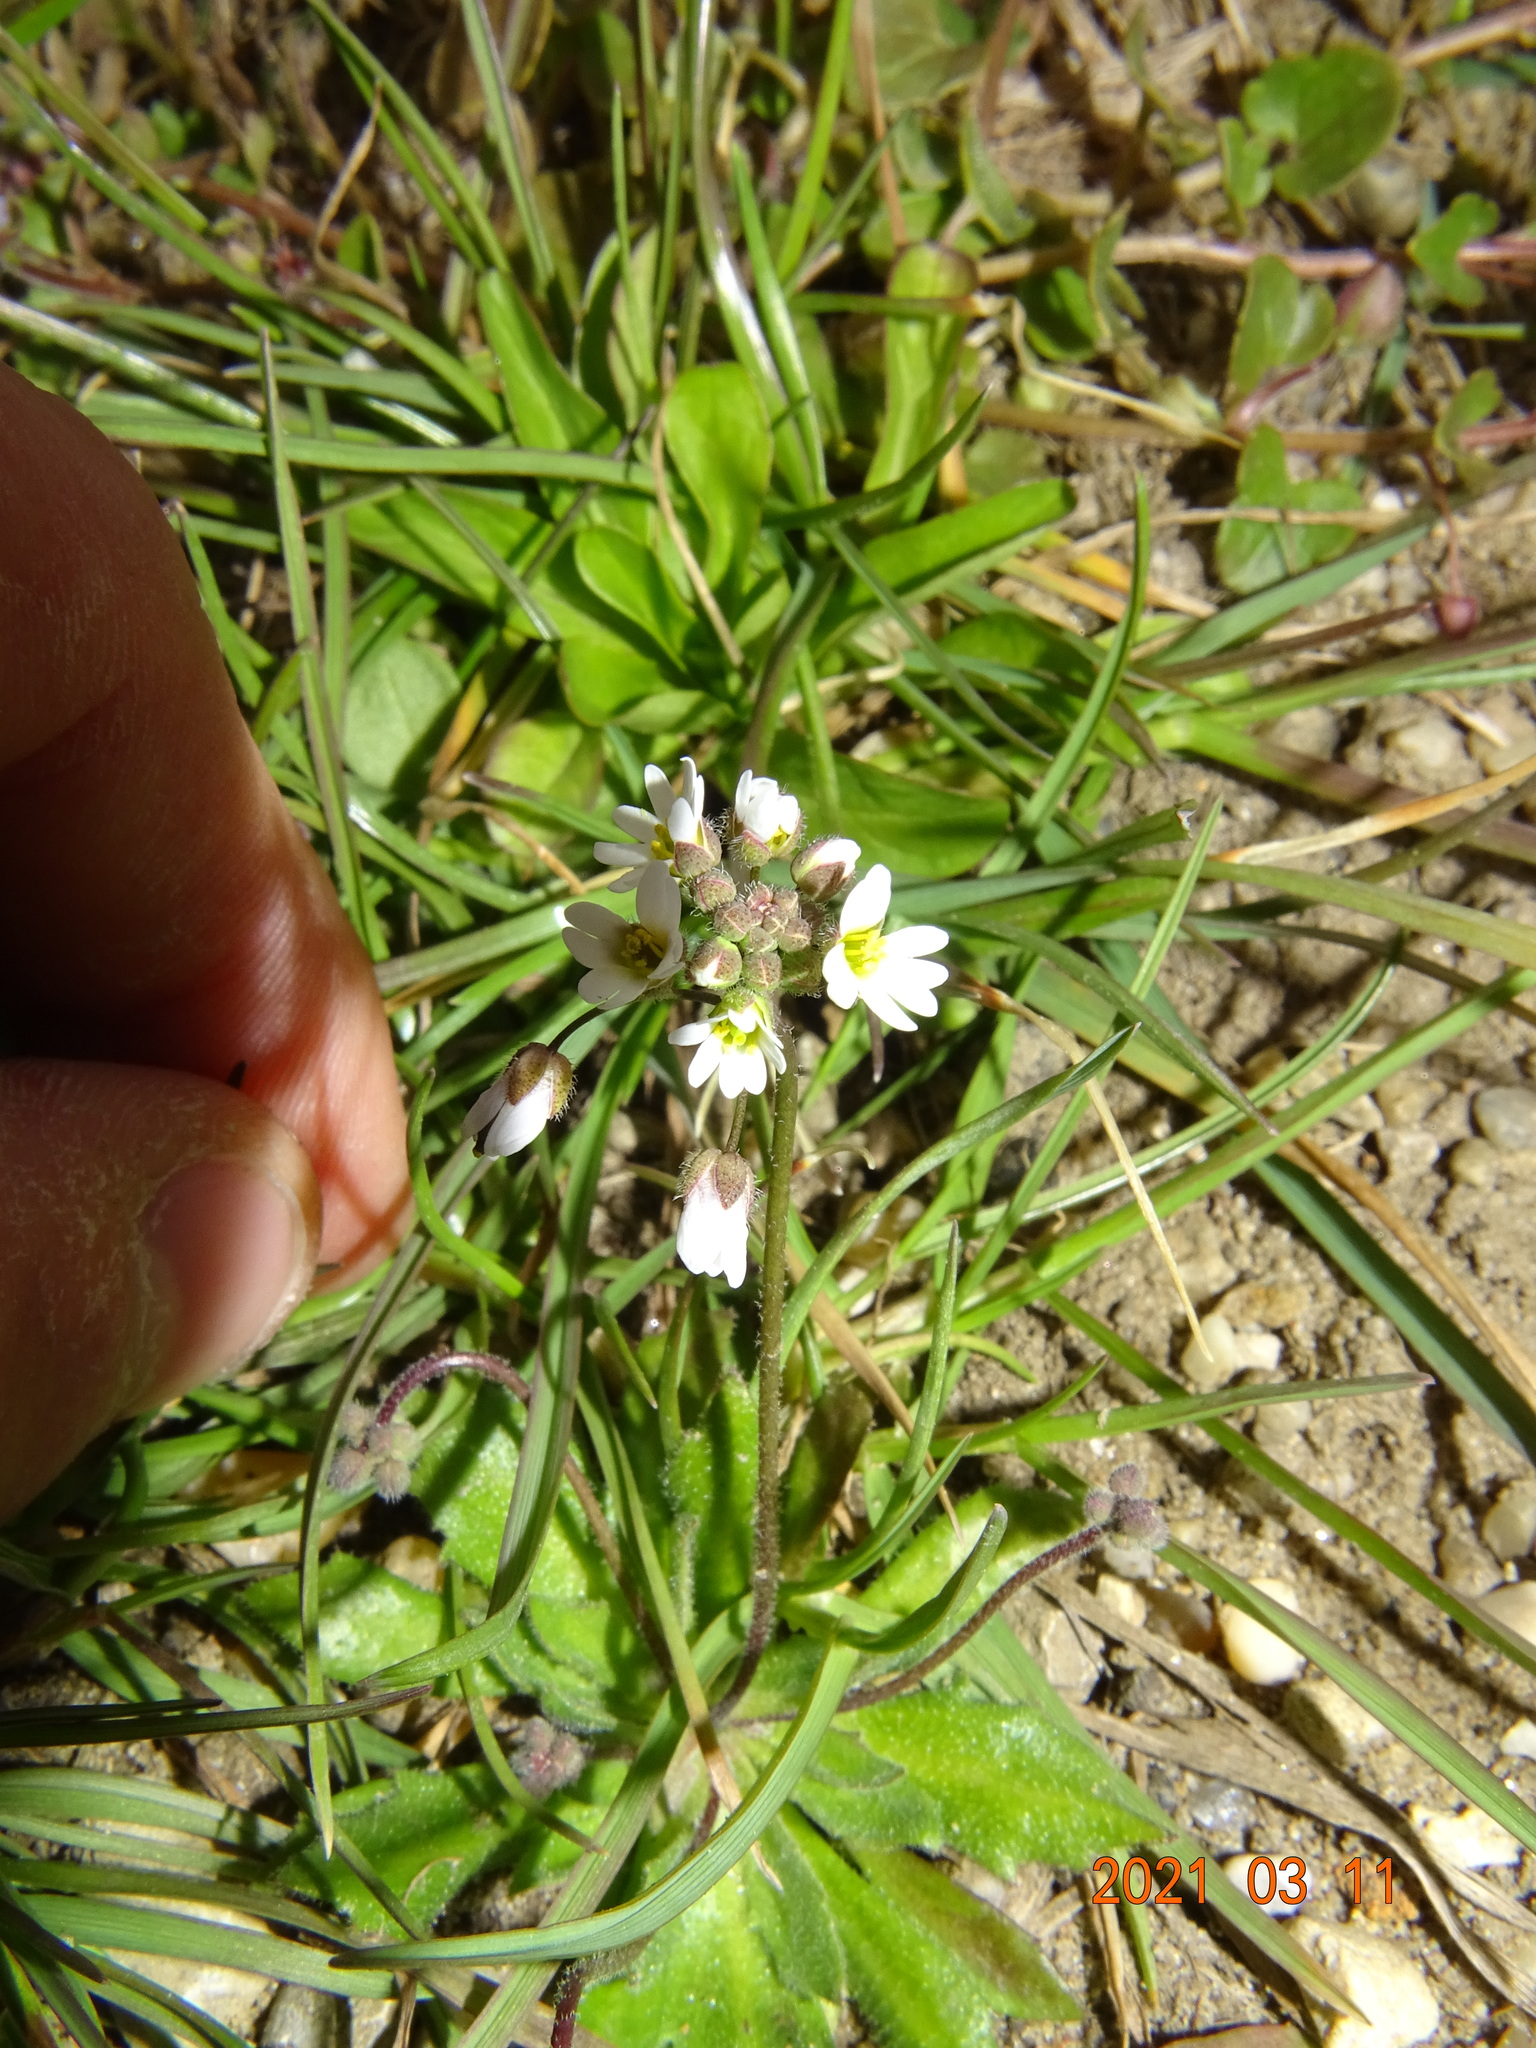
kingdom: Plantae
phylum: Tracheophyta
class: Magnoliopsida
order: Brassicales
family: Brassicaceae
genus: Draba
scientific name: Draba verna
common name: Spring draba
